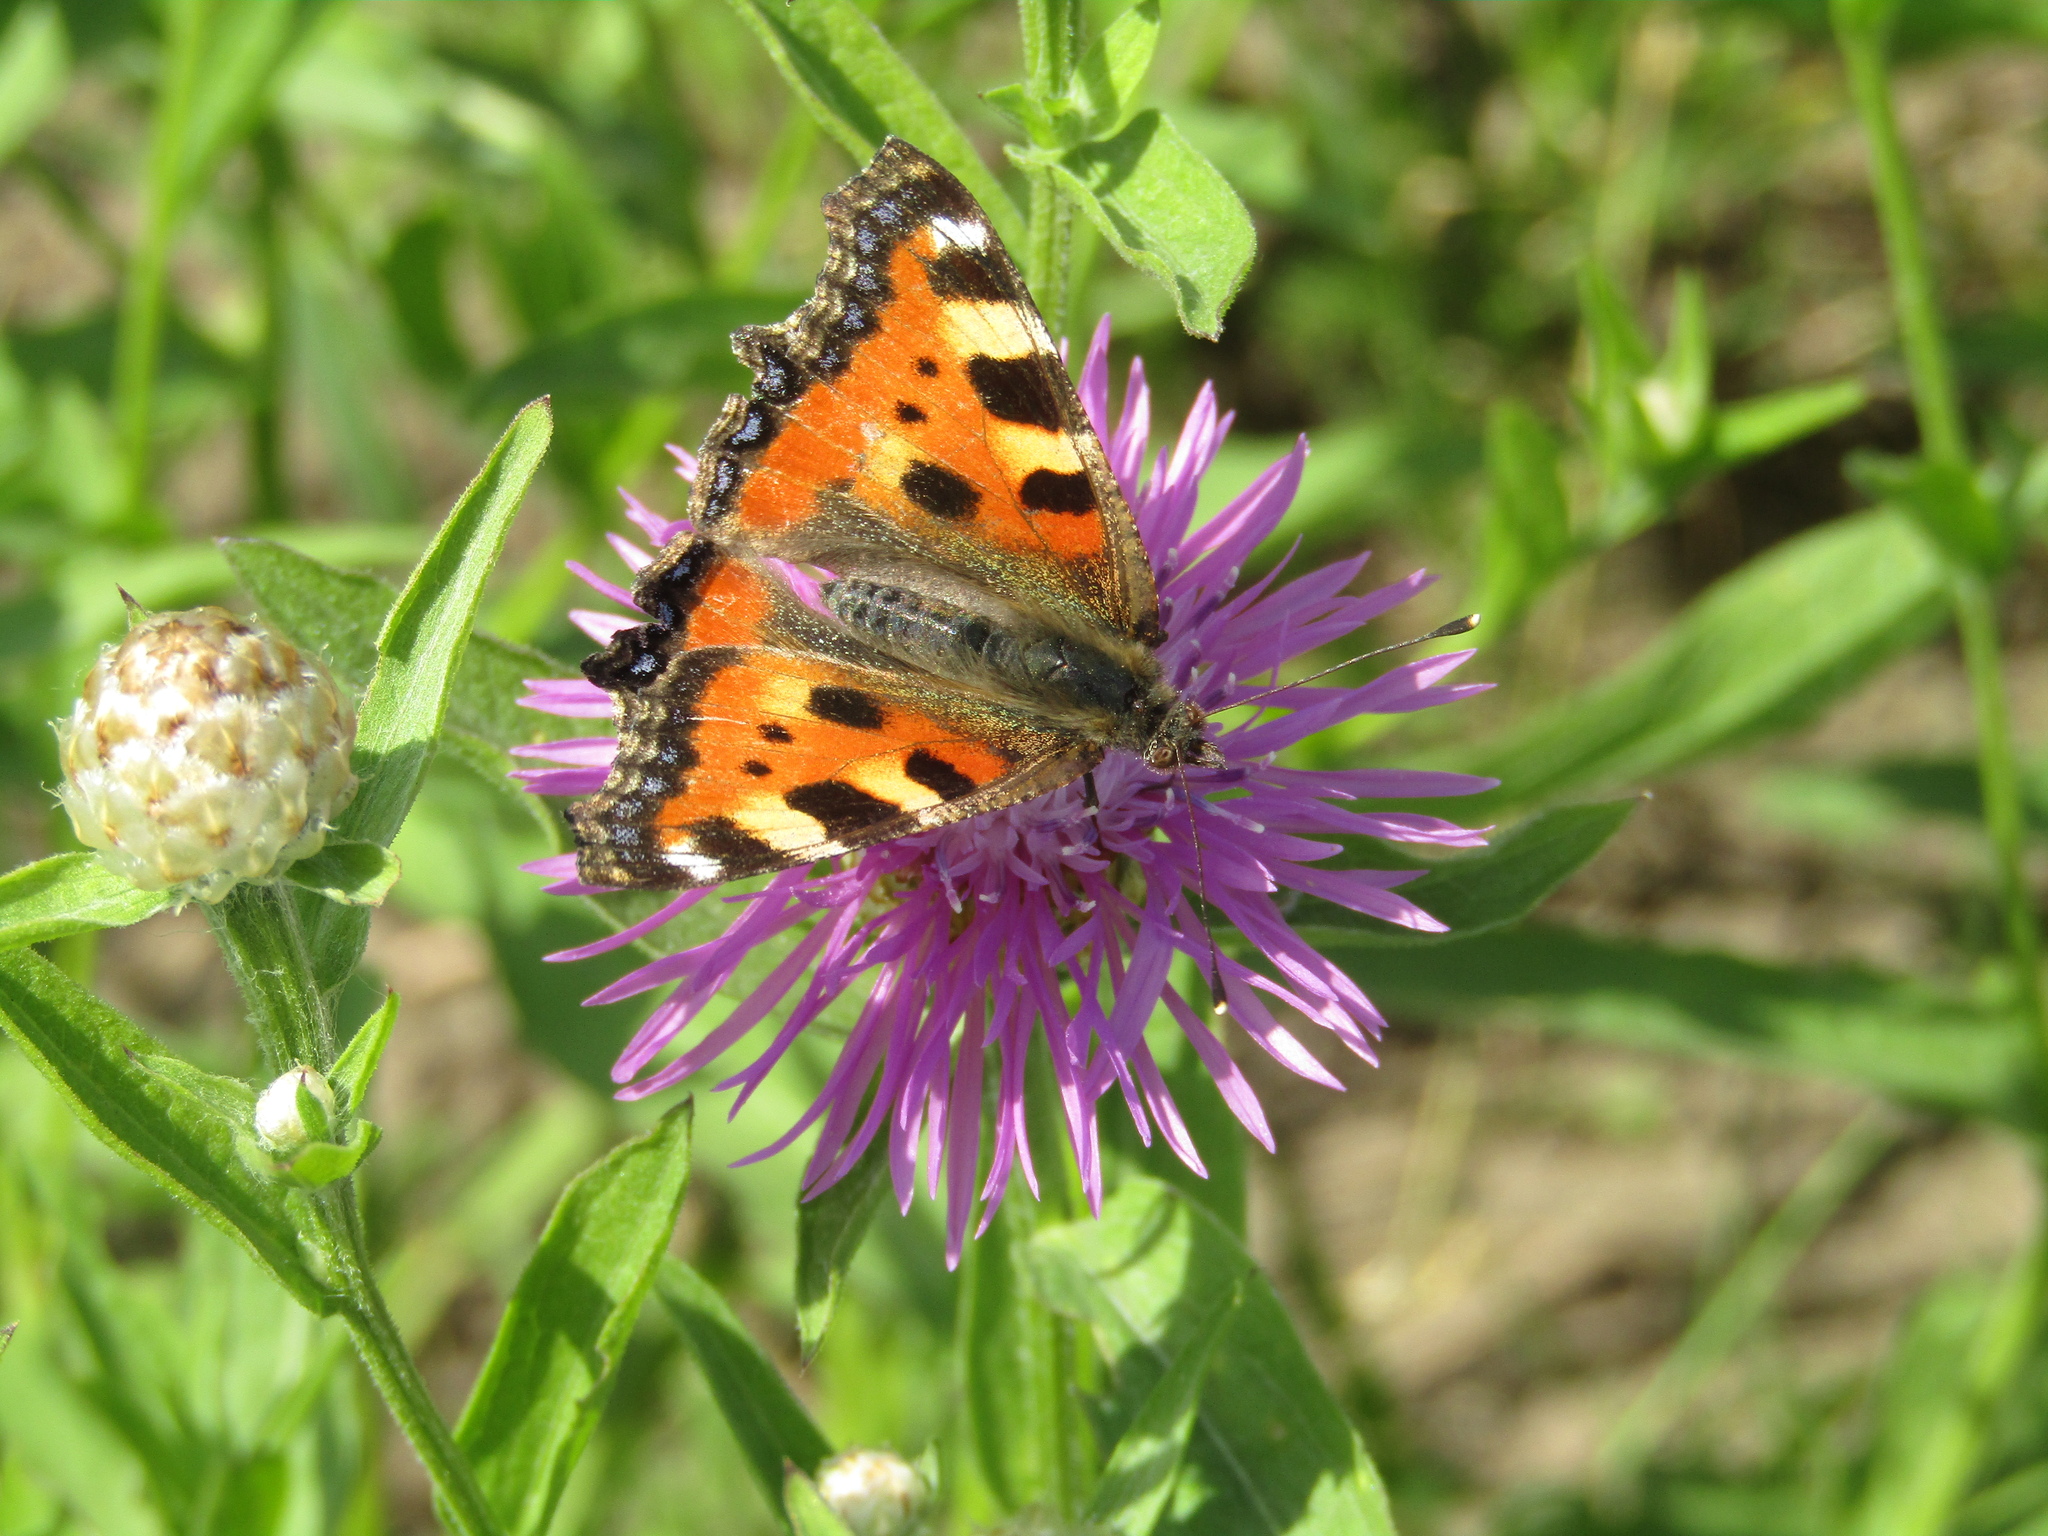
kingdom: Animalia
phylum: Arthropoda
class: Insecta
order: Lepidoptera
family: Nymphalidae
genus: Aglais
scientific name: Aglais urticae
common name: Small tortoiseshell
